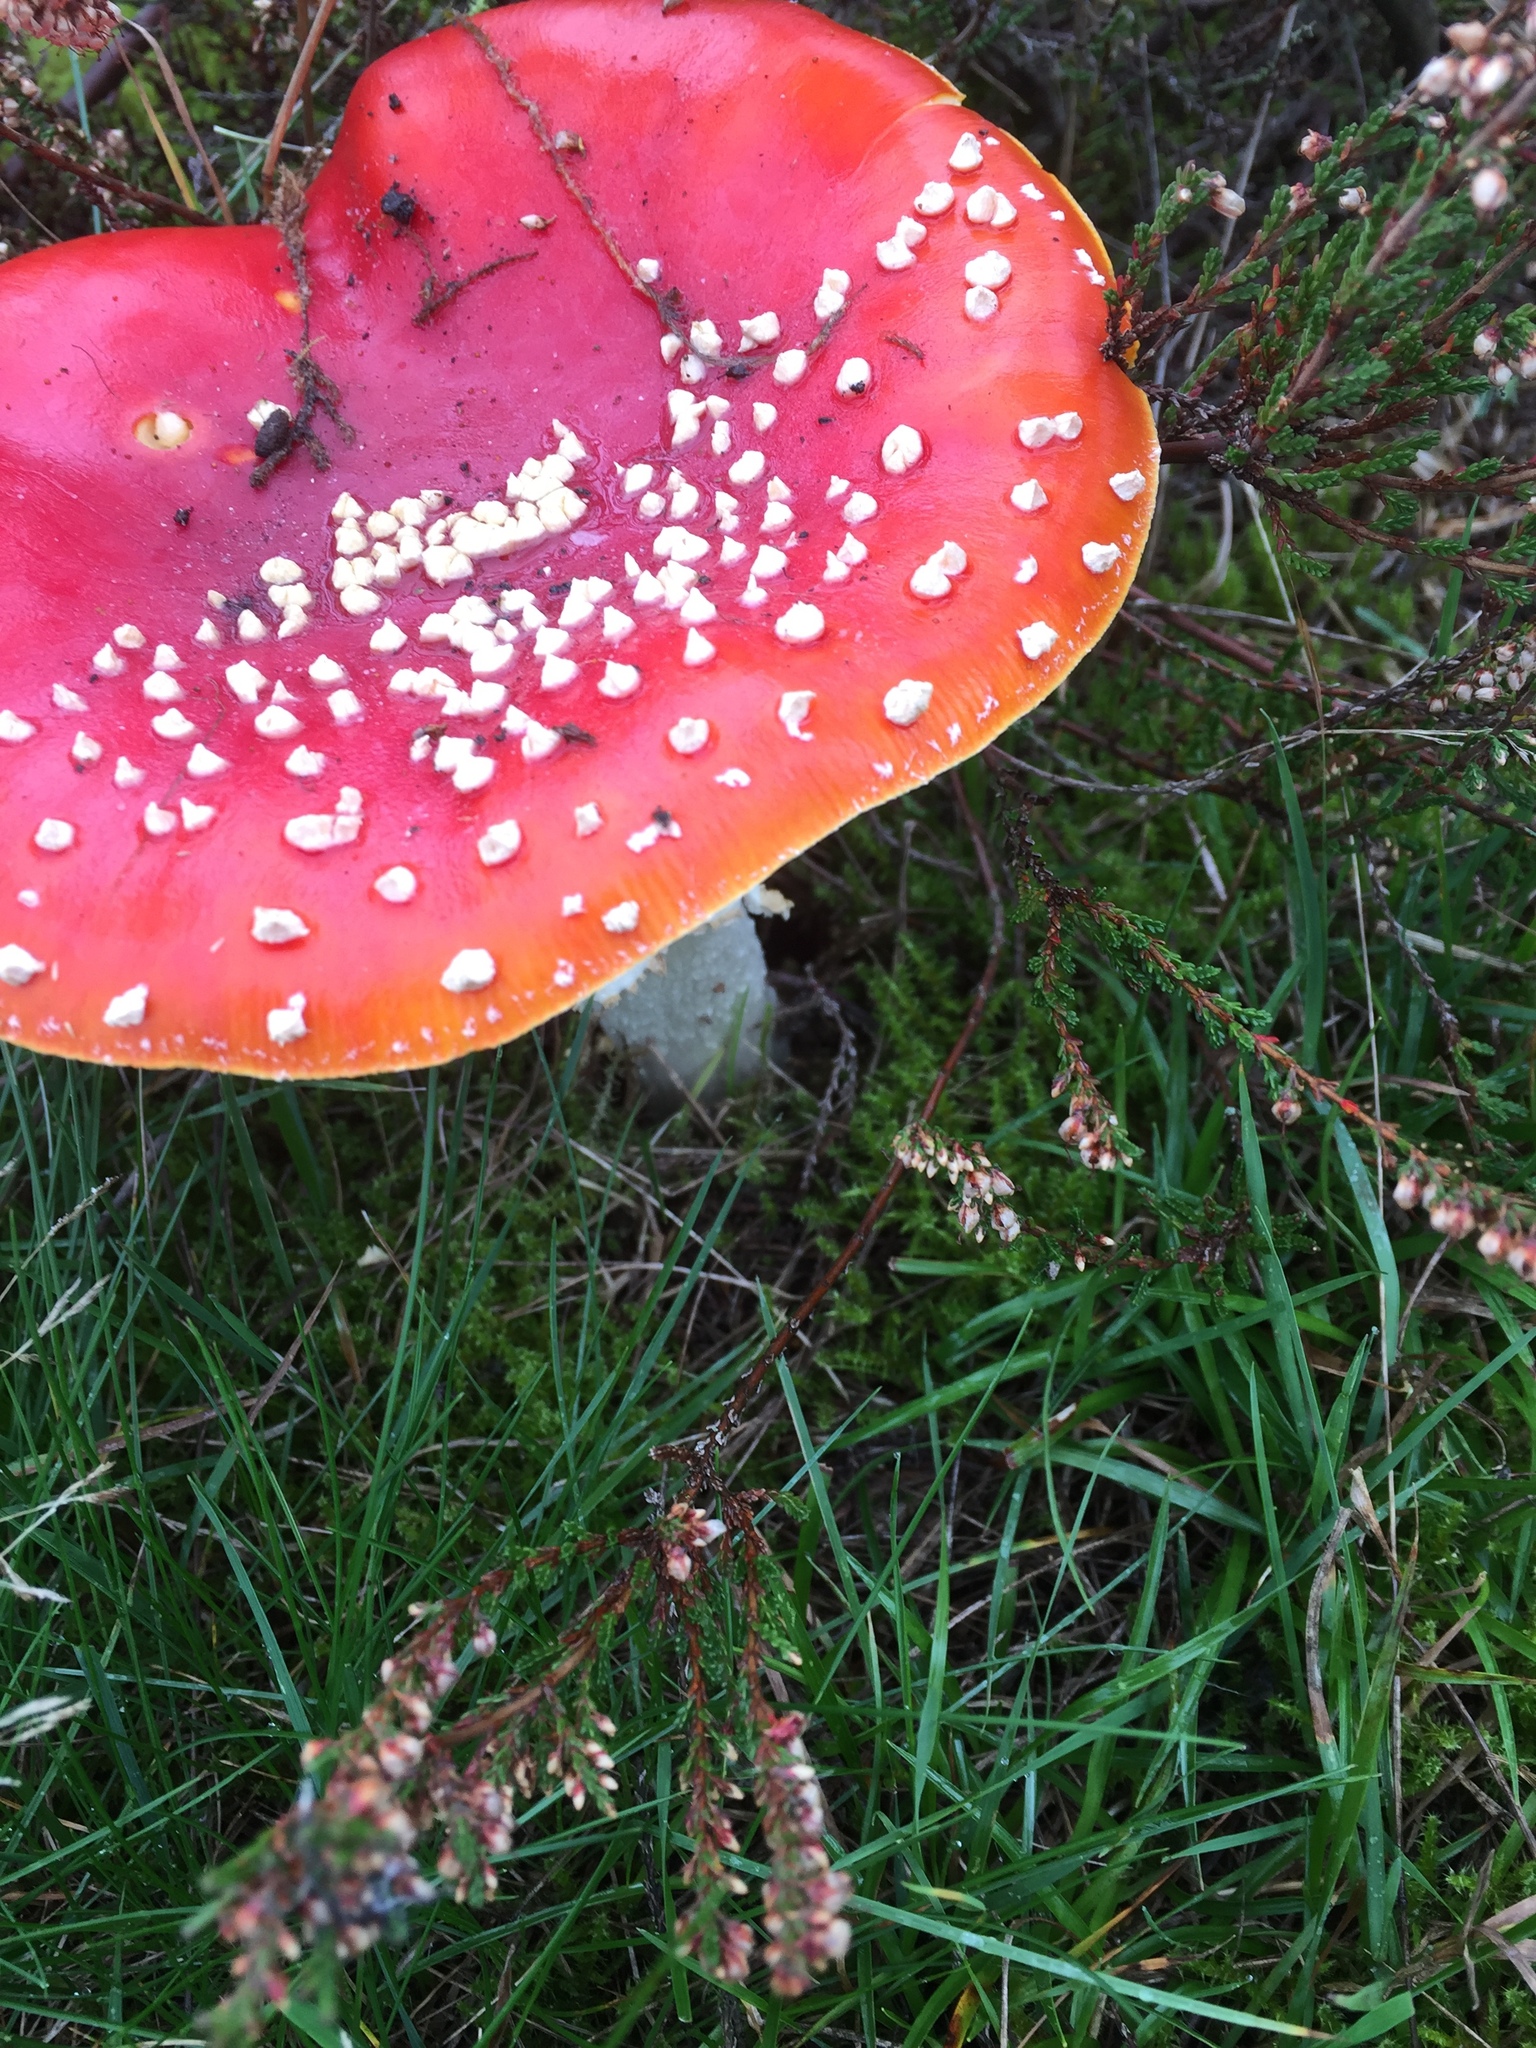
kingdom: Fungi
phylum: Basidiomycota
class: Agaricomycetes
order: Agaricales
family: Amanitaceae
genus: Amanita
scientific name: Amanita muscaria
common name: Fly agaric
